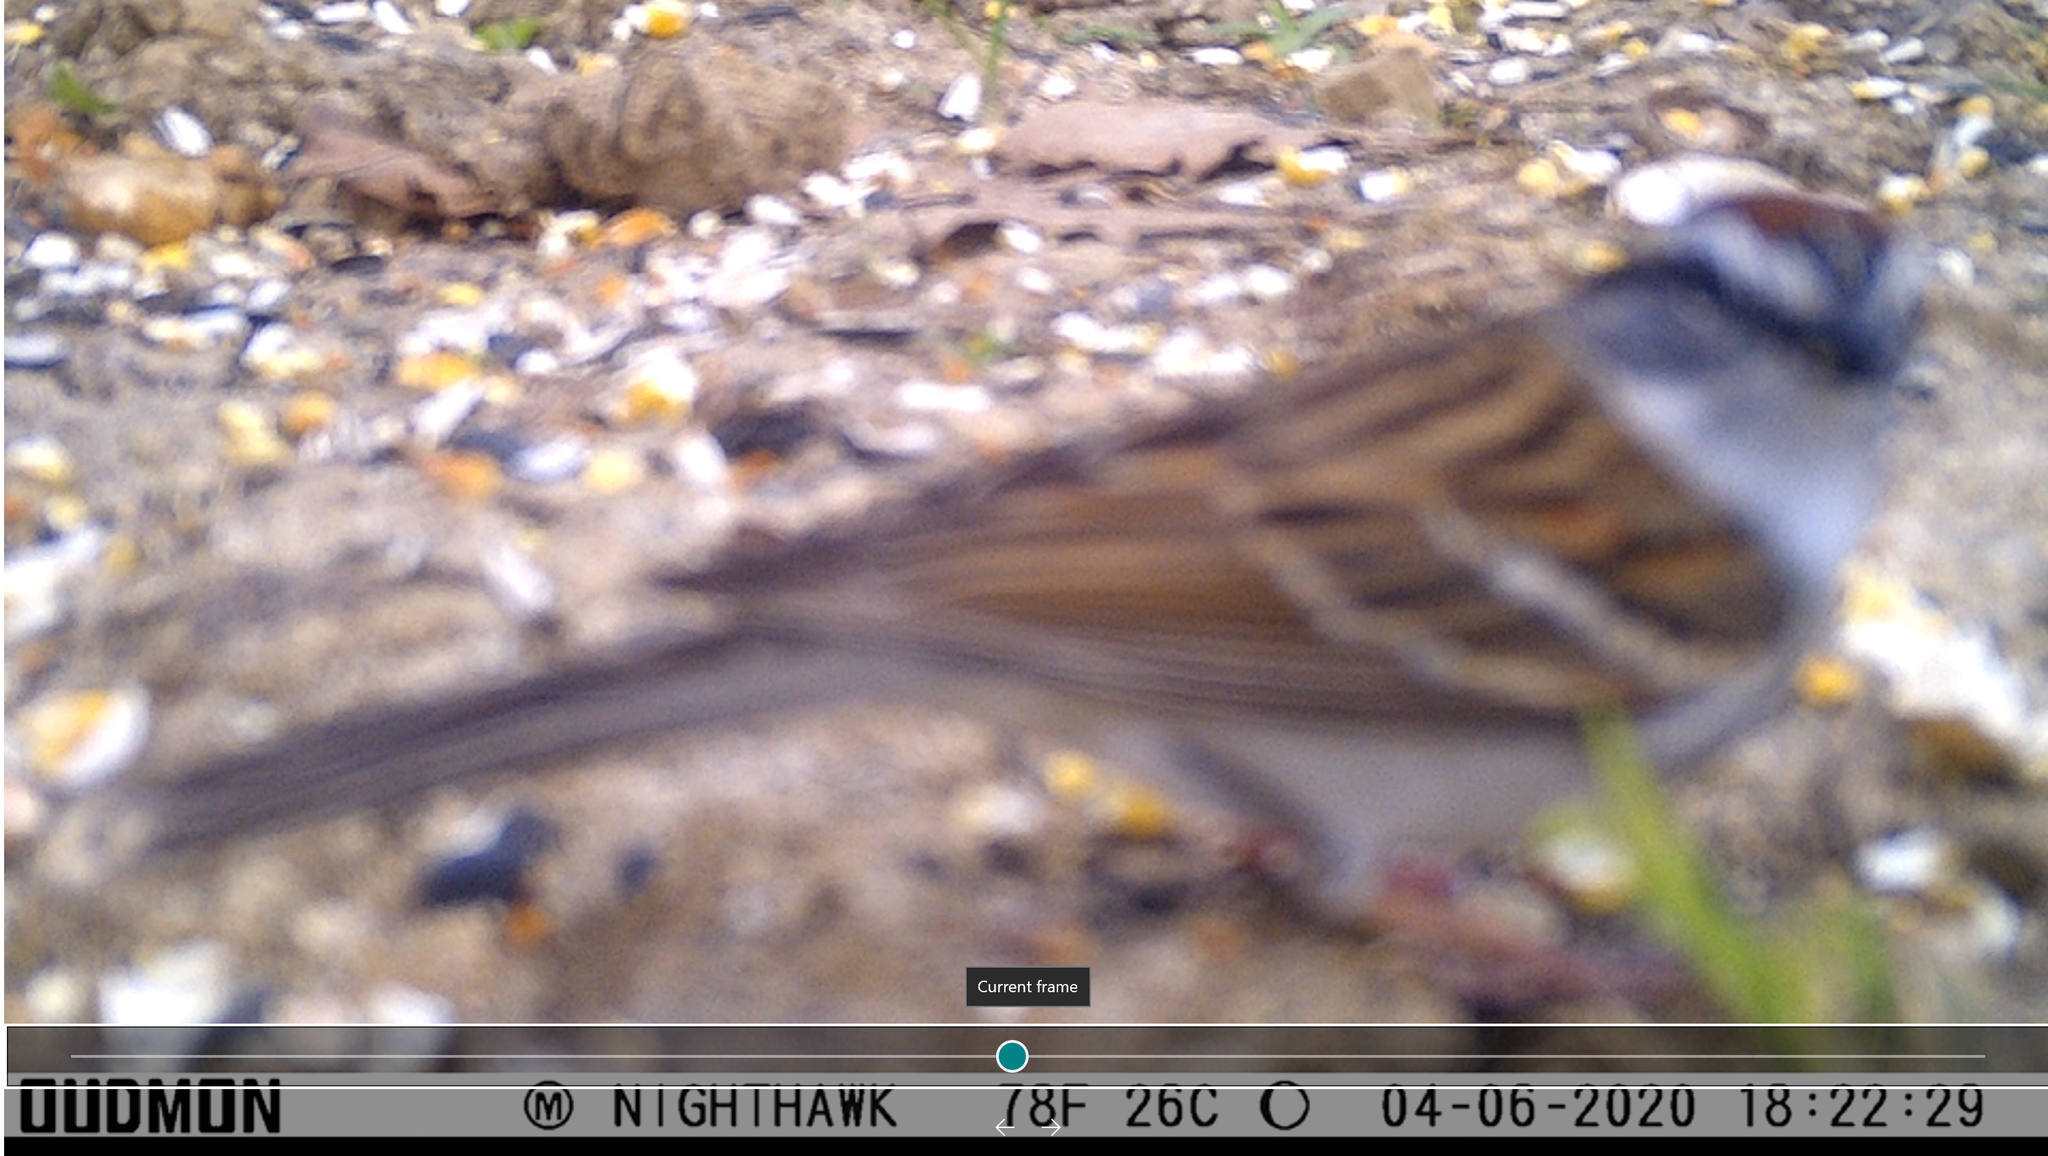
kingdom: Animalia
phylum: Chordata
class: Aves
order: Passeriformes
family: Passerellidae
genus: Spizella
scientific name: Spizella passerina
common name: Chipping sparrow
